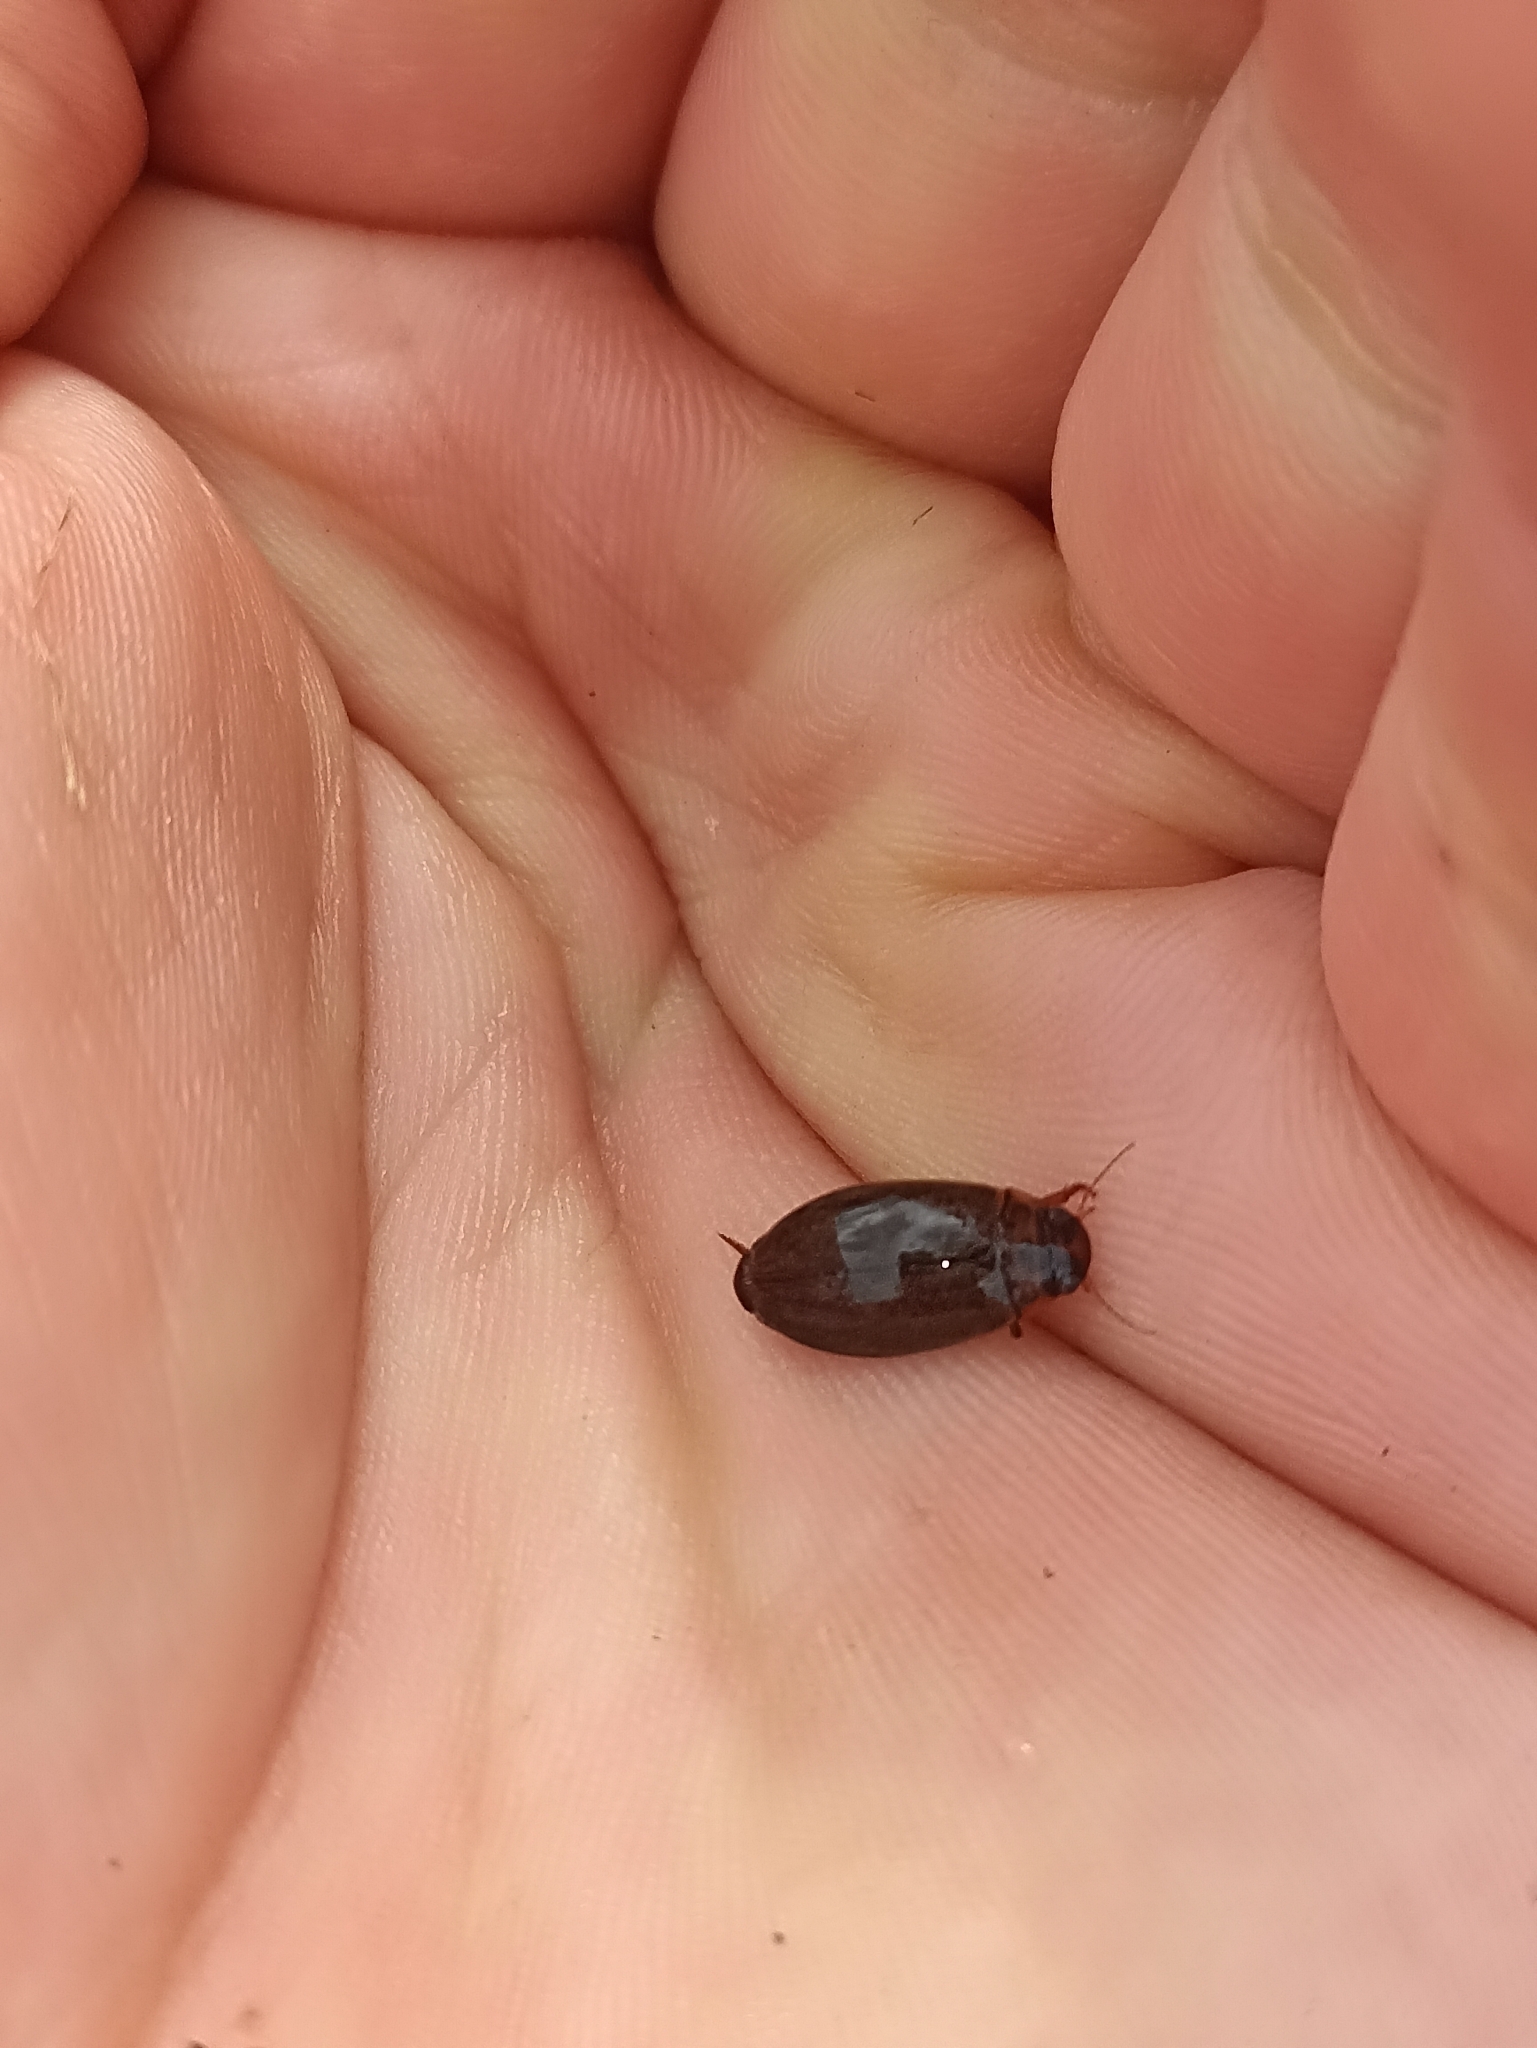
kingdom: Animalia
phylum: Arthropoda
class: Insecta
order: Coleoptera
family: Dytiscidae
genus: Rhantus
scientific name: Rhantus suturalis
